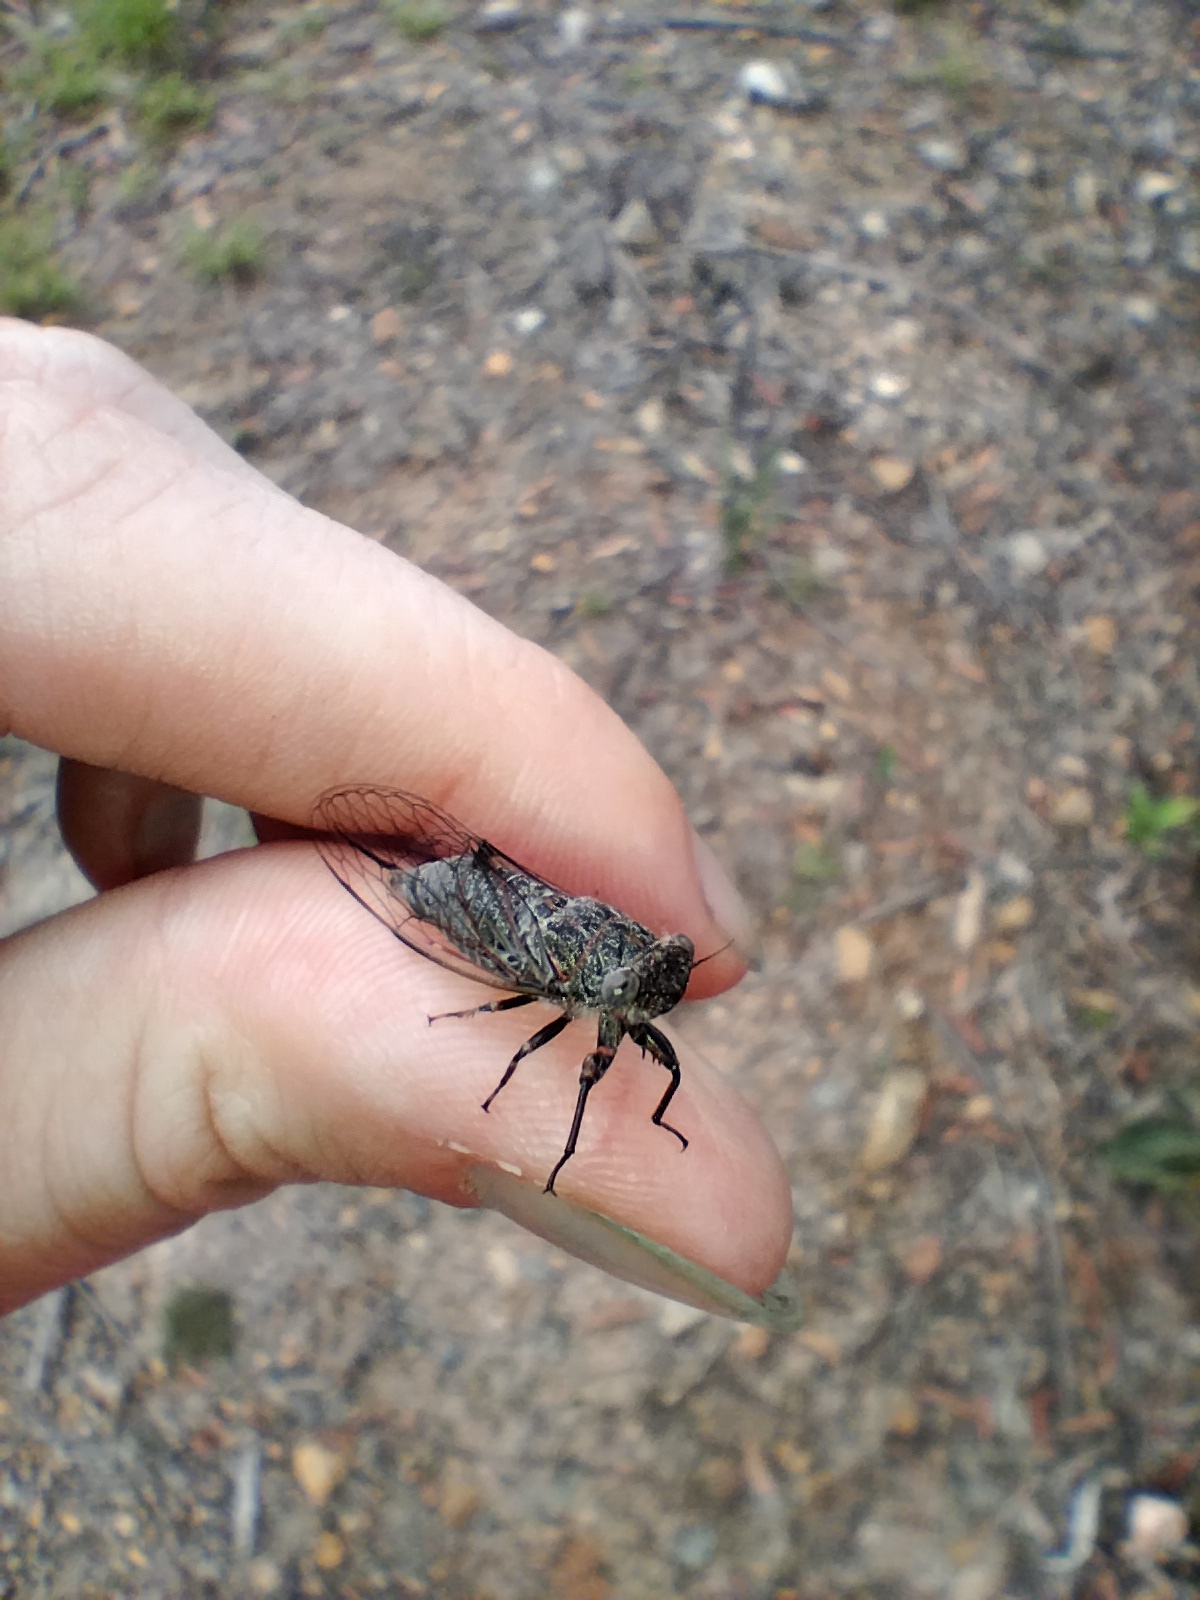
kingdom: Animalia
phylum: Arthropoda
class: Insecta
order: Hemiptera
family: Cicadidae
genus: Atrapsalta
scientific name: Atrapsalta corticina
